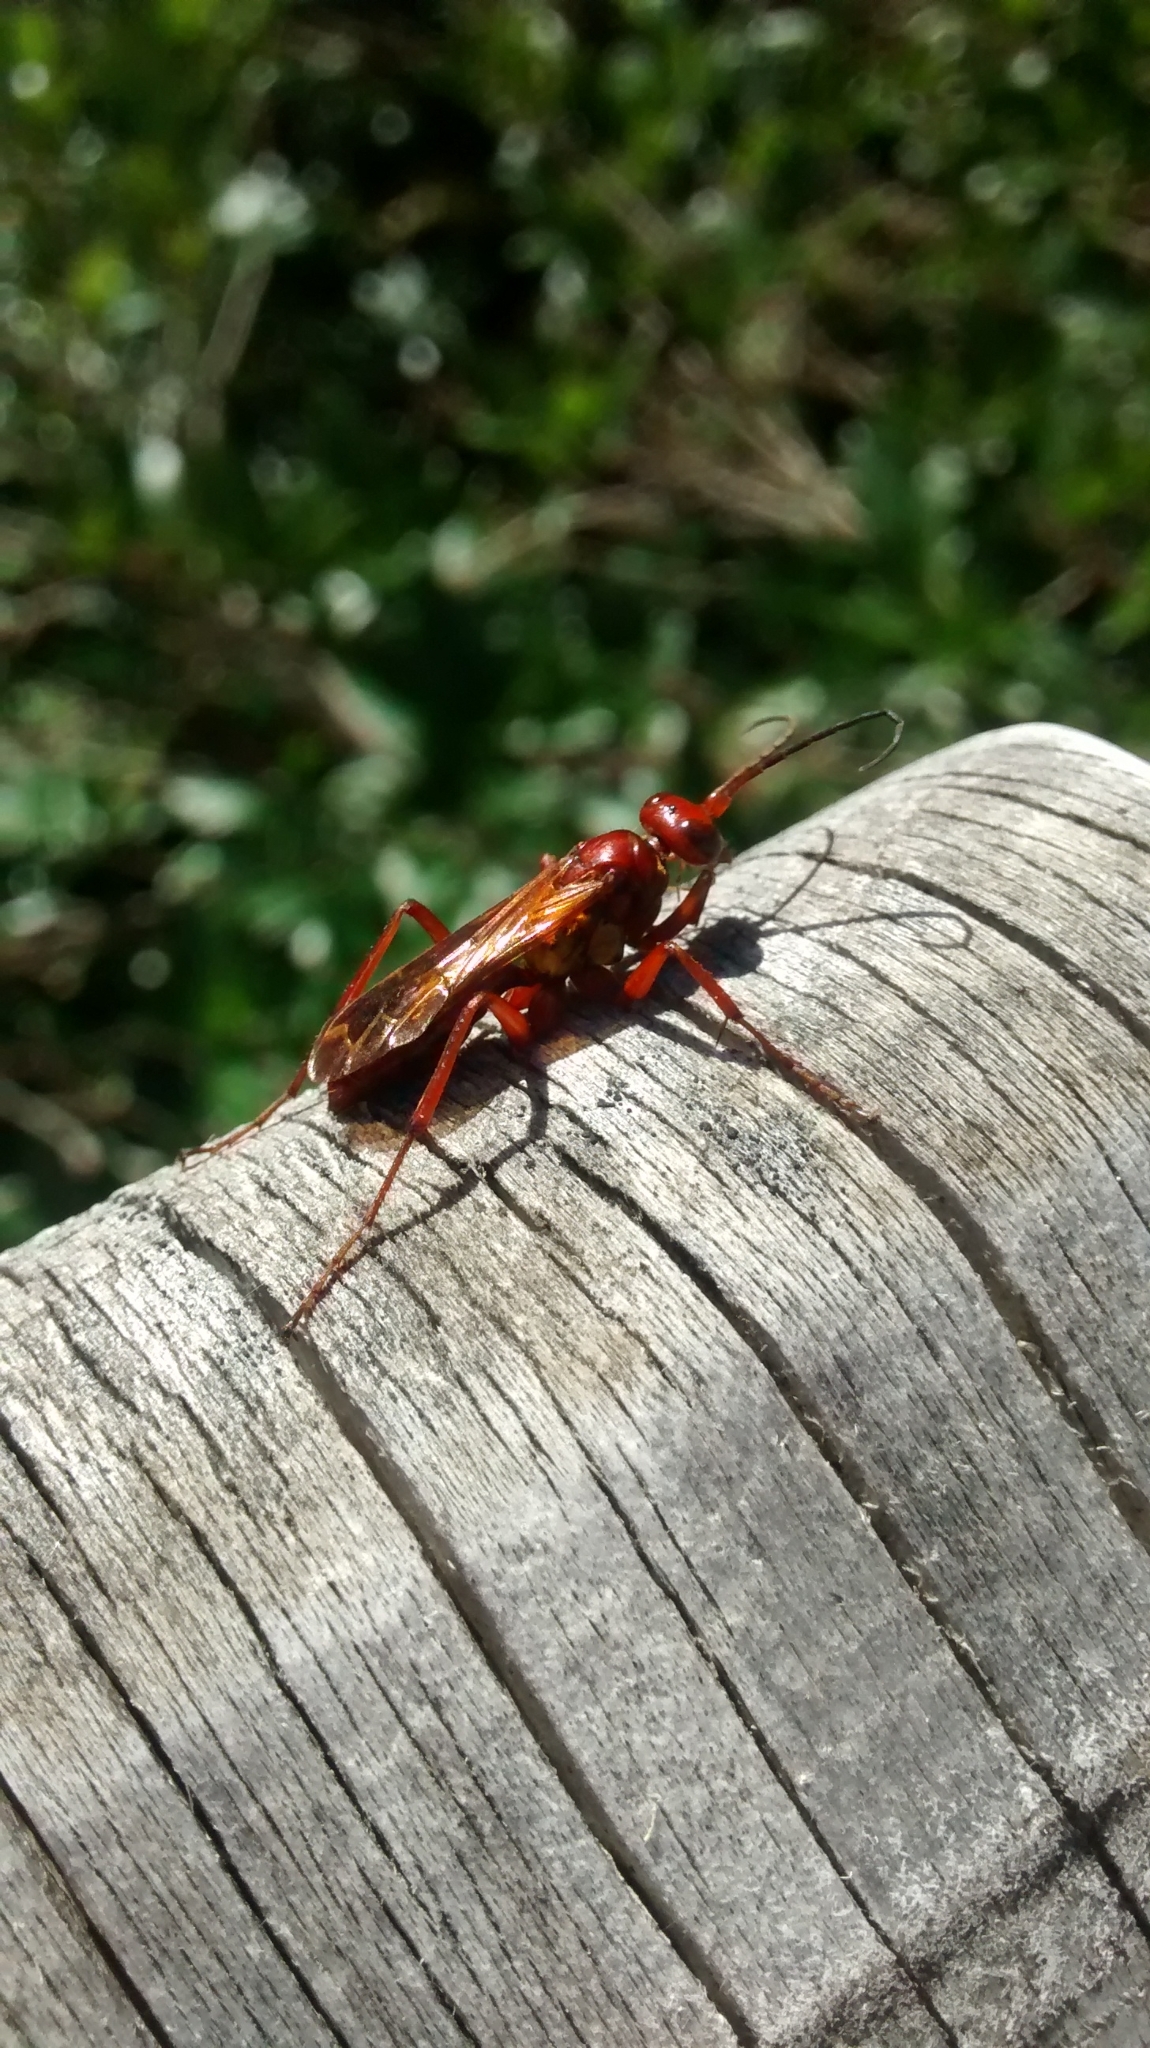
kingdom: Animalia
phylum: Arthropoda
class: Insecta
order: Hymenoptera
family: Pompilidae
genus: Sphictostethus
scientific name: Sphictostethus nitidus
